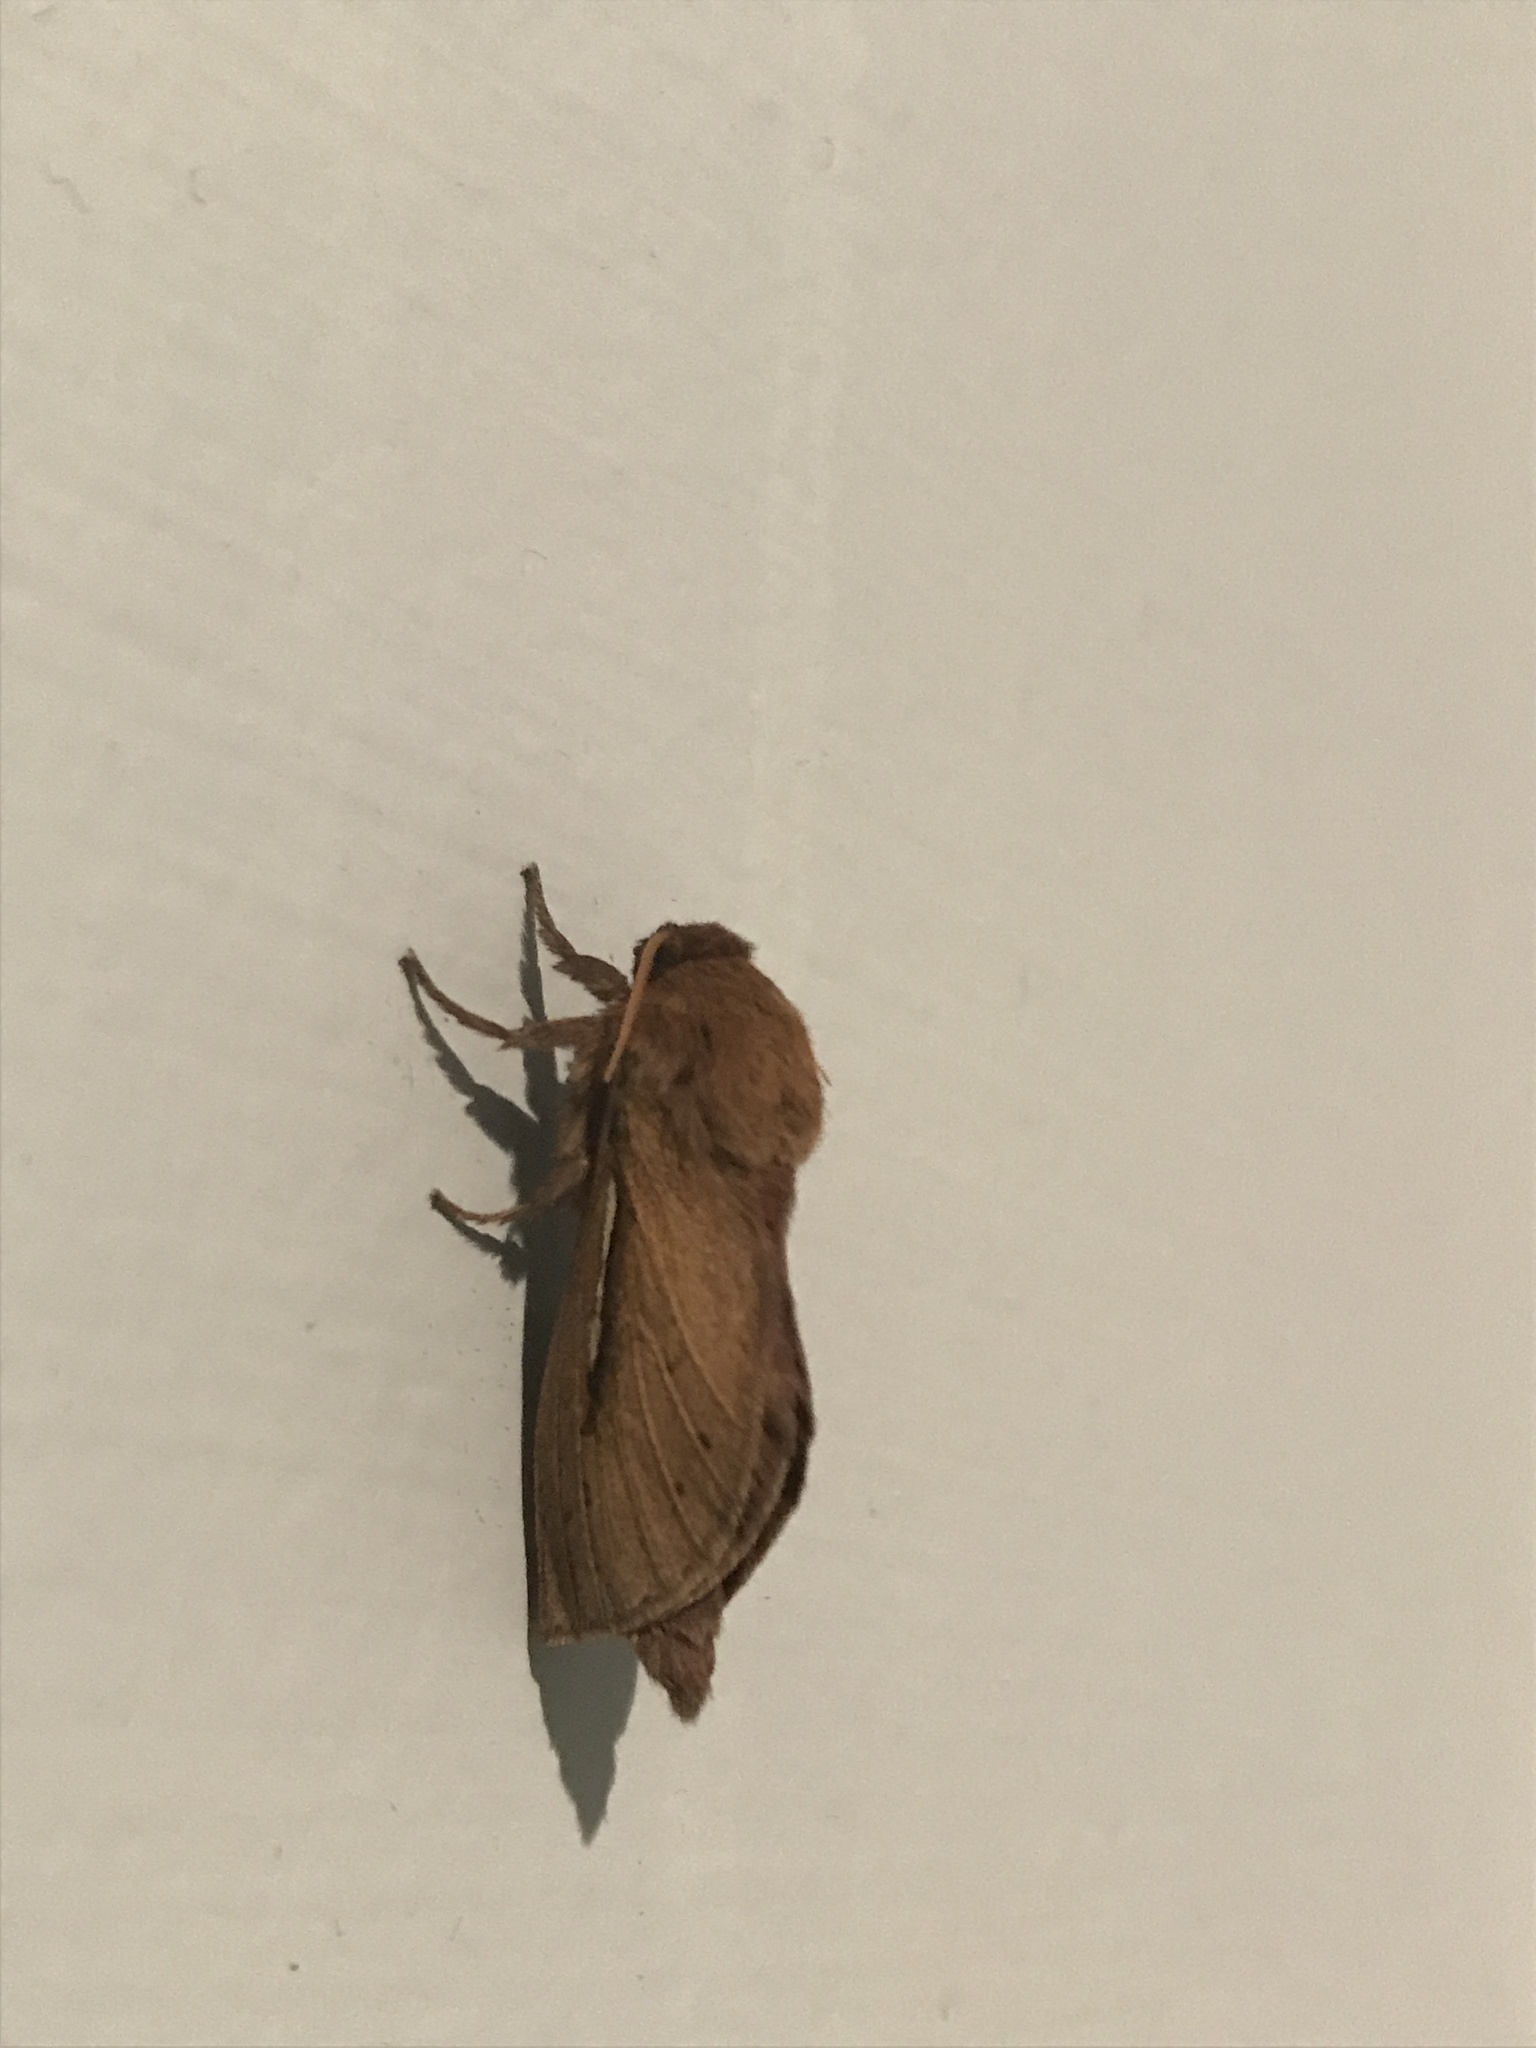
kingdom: Animalia
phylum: Arthropoda
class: Insecta
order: Lepidoptera
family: Hepialidae
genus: Wiseana
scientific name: Wiseana umbraculatus
